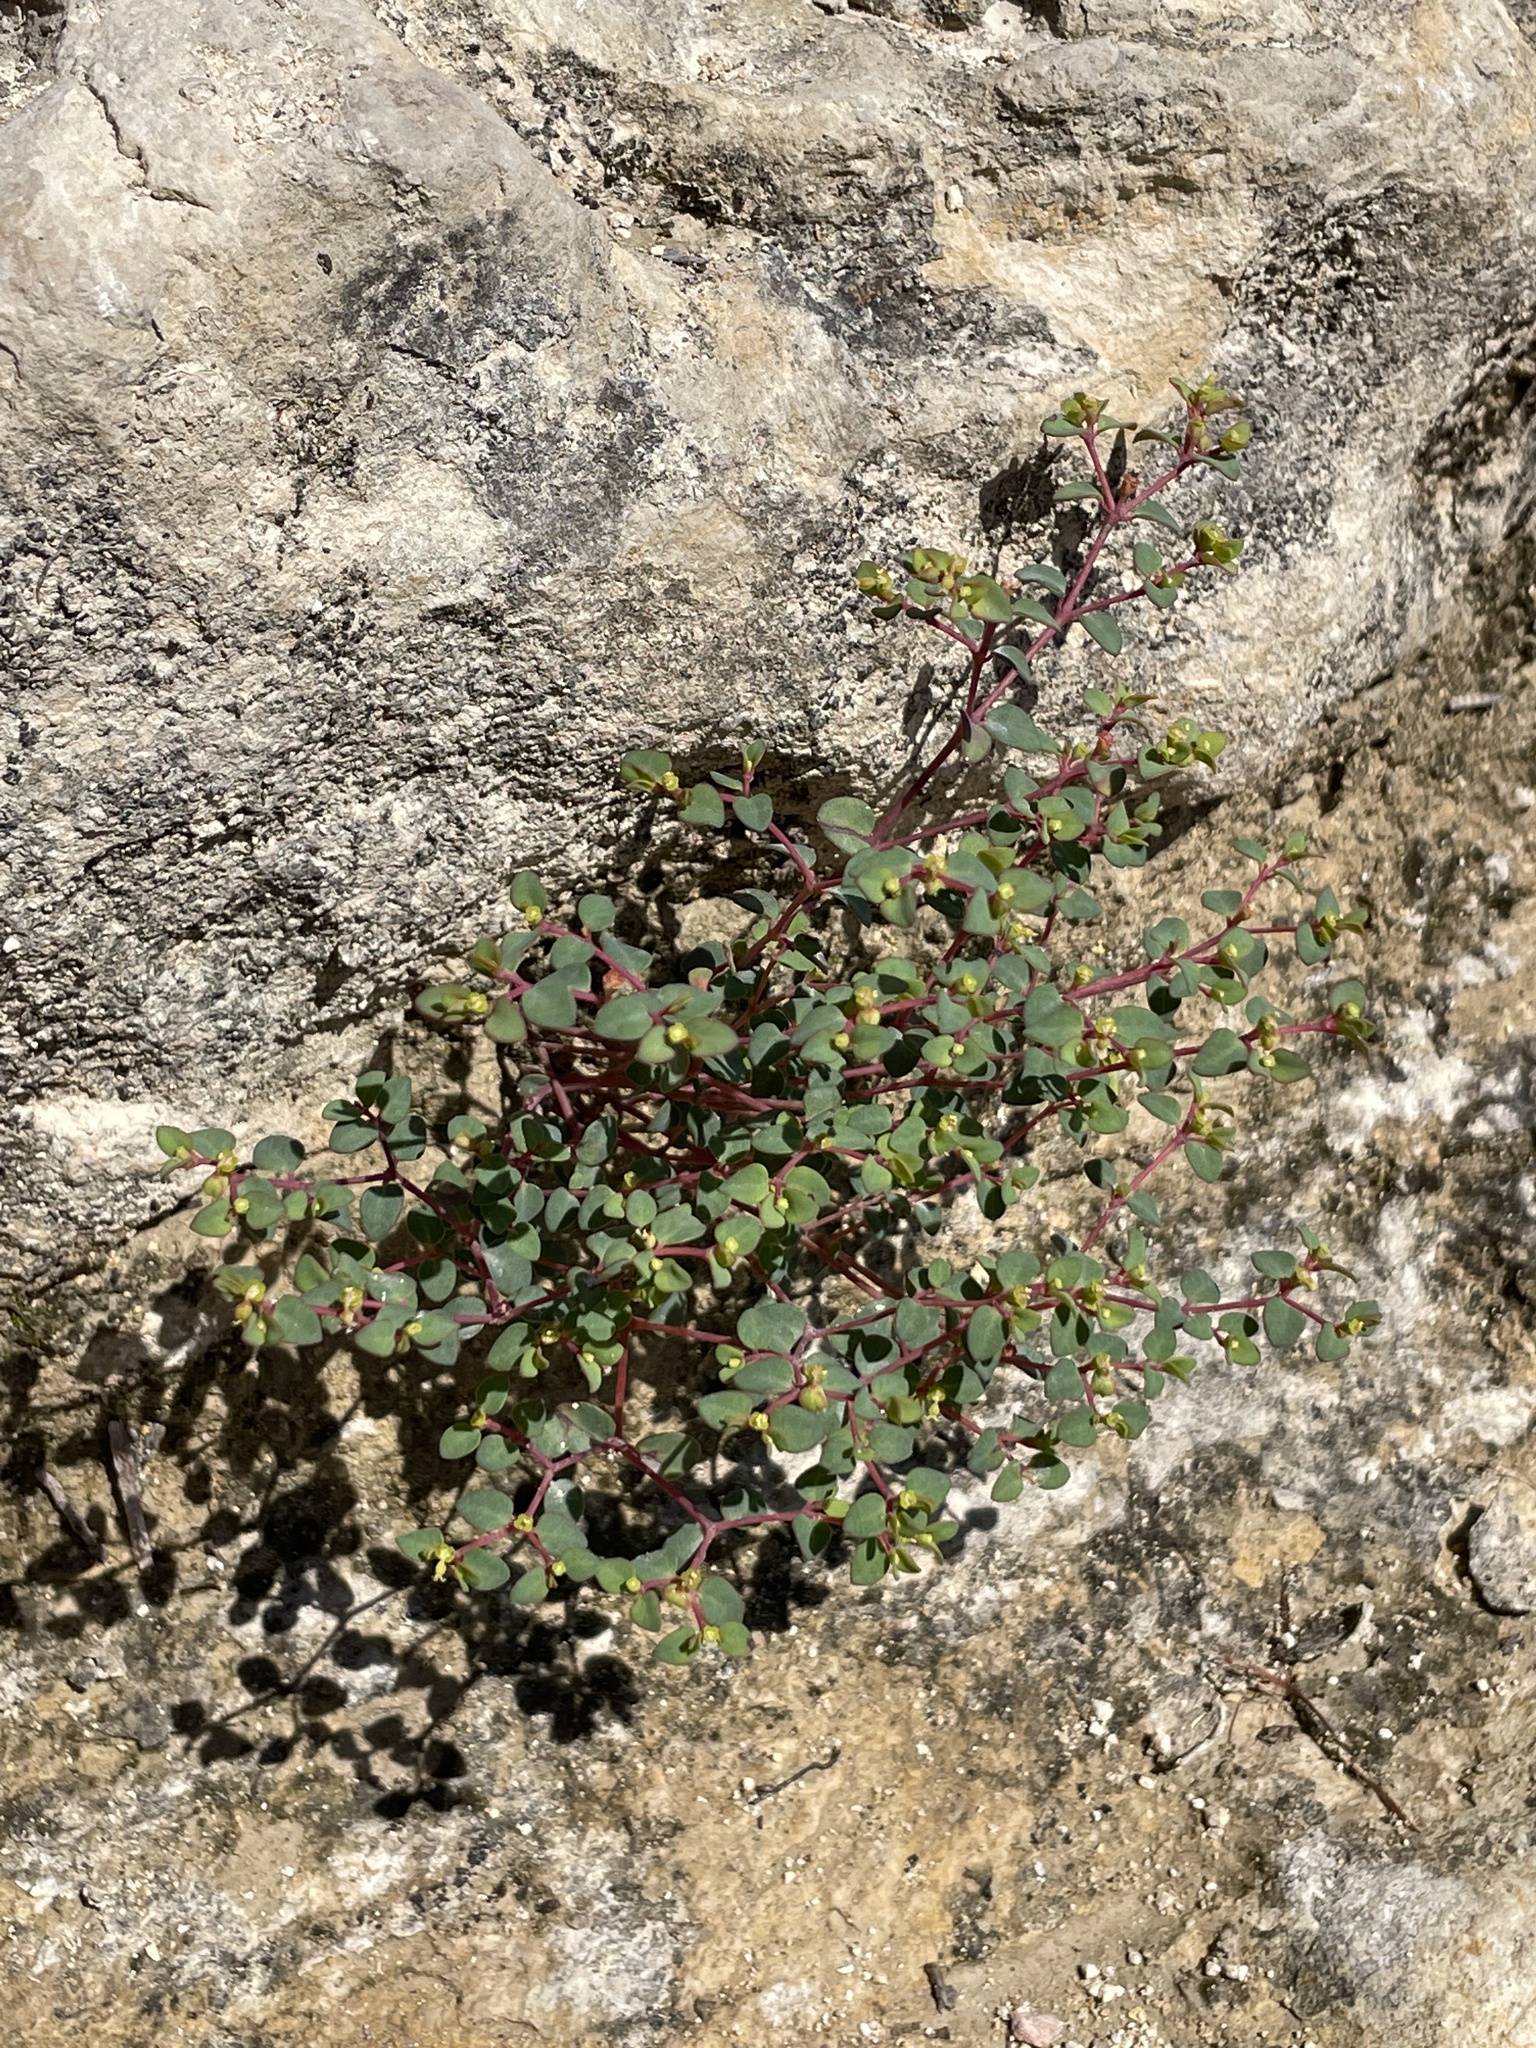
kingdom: Plantae
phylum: Tracheophyta
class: Magnoliopsida
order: Malpighiales
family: Euphorbiaceae
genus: Euphorbia
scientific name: Euphorbia fendleri
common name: Fendler's euphorbia
